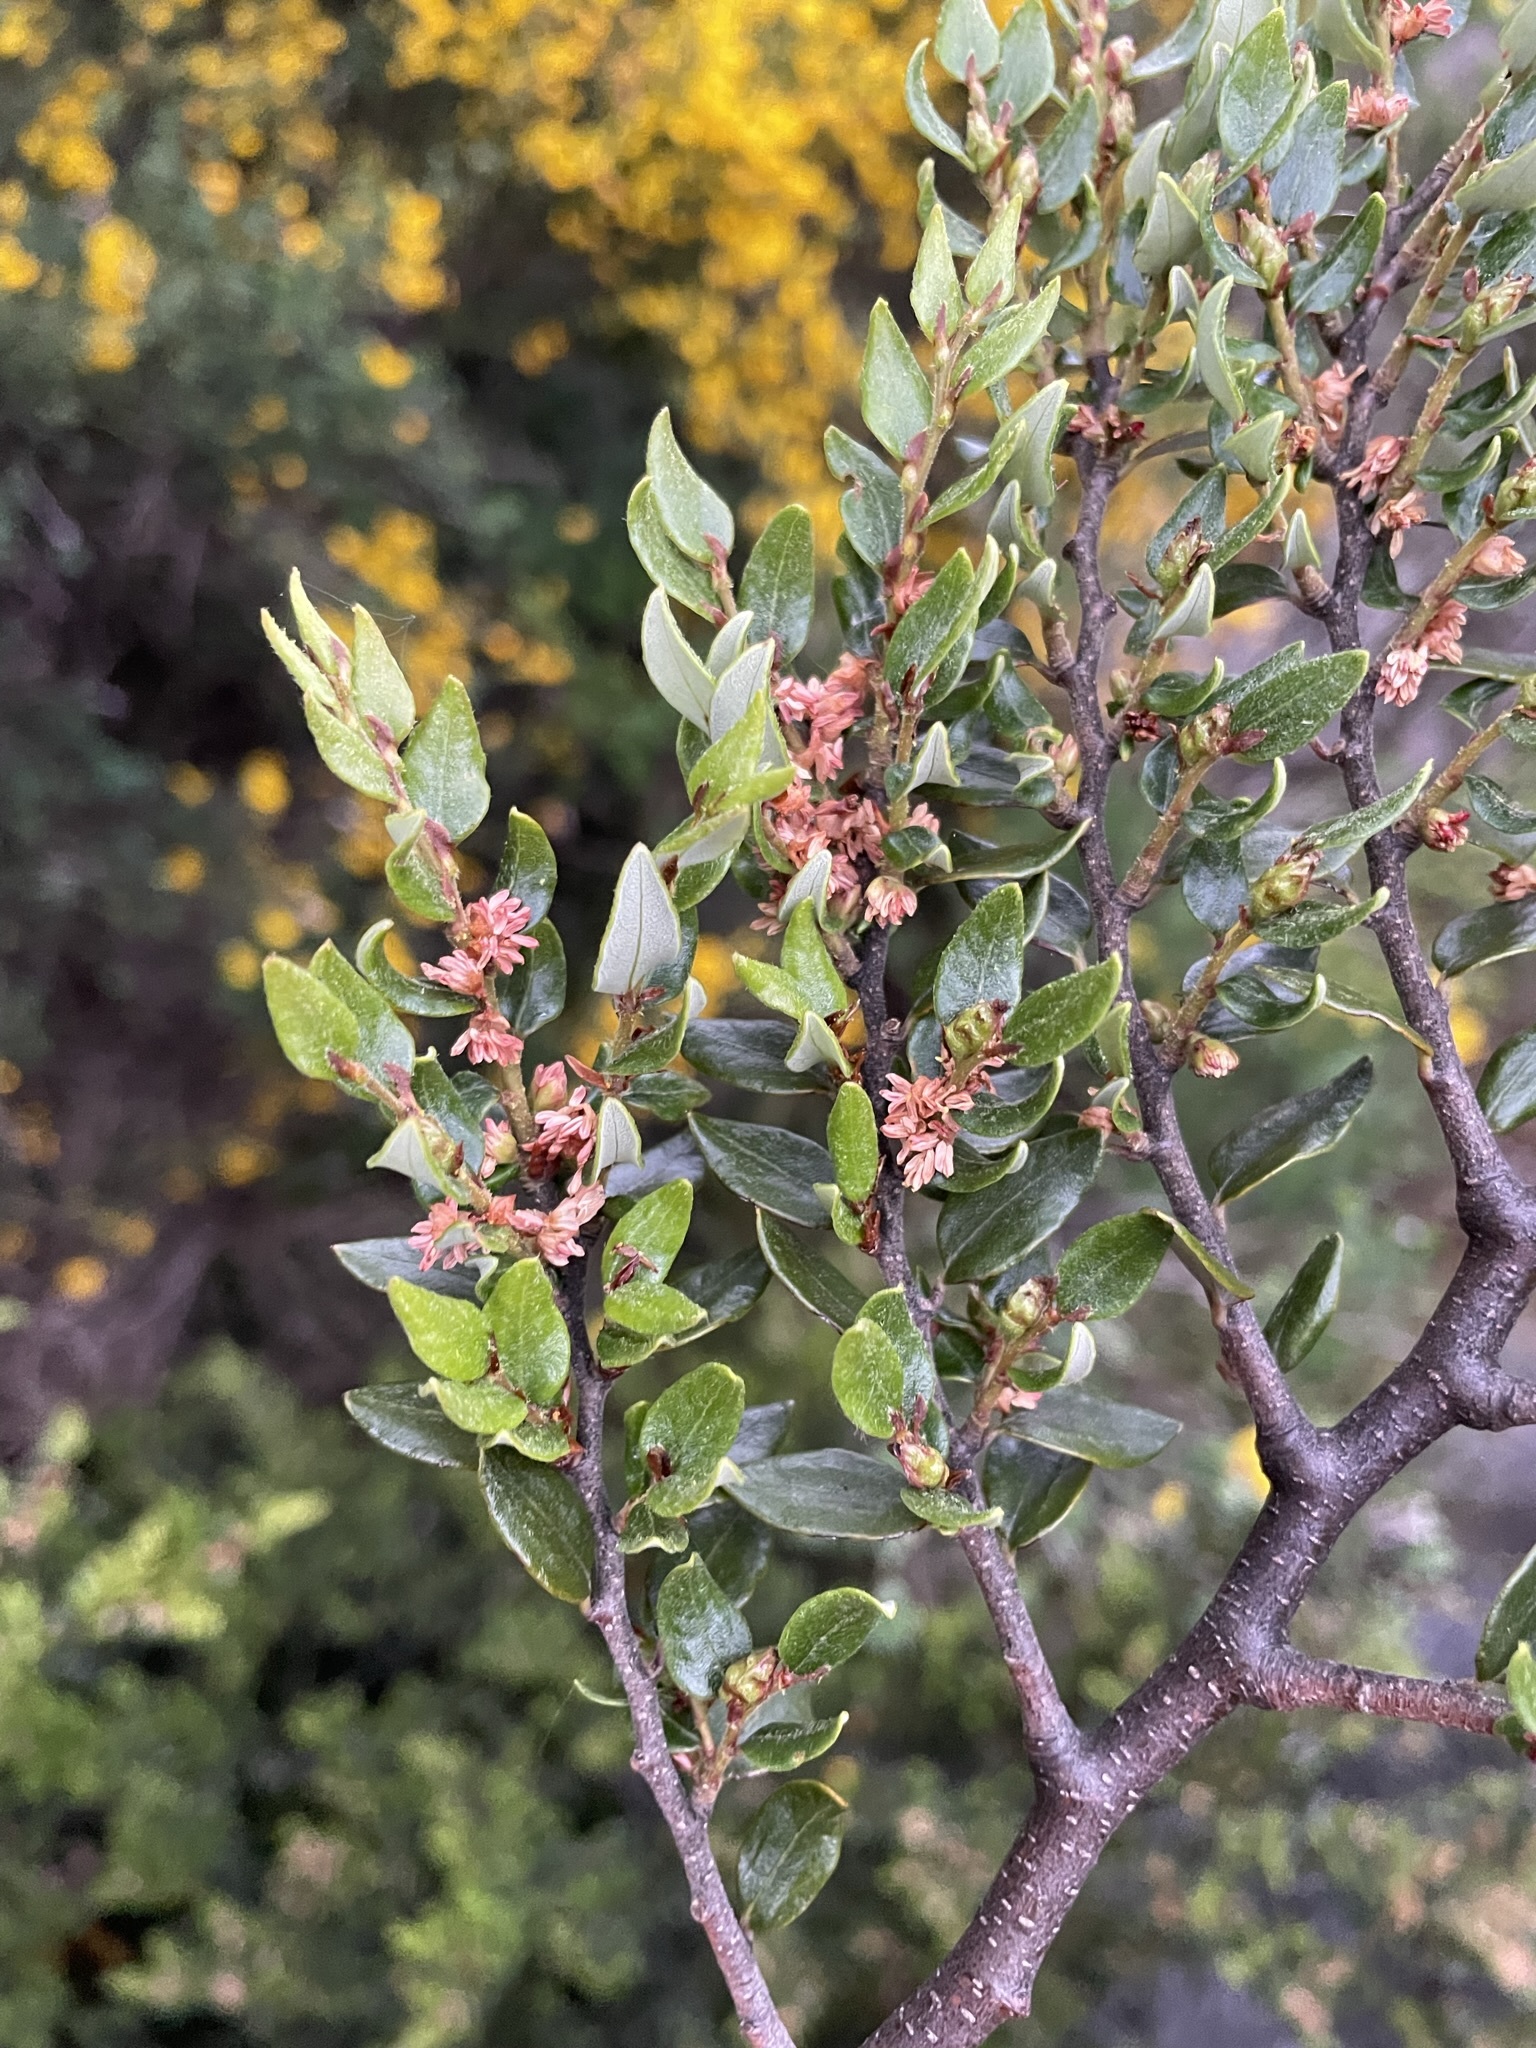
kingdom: Plantae
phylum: Tracheophyta
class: Magnoliopsida
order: Fagales
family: Nothofagaceae
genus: Nothofagus
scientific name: Nothofagus cliffortioides
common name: Mountain beech
